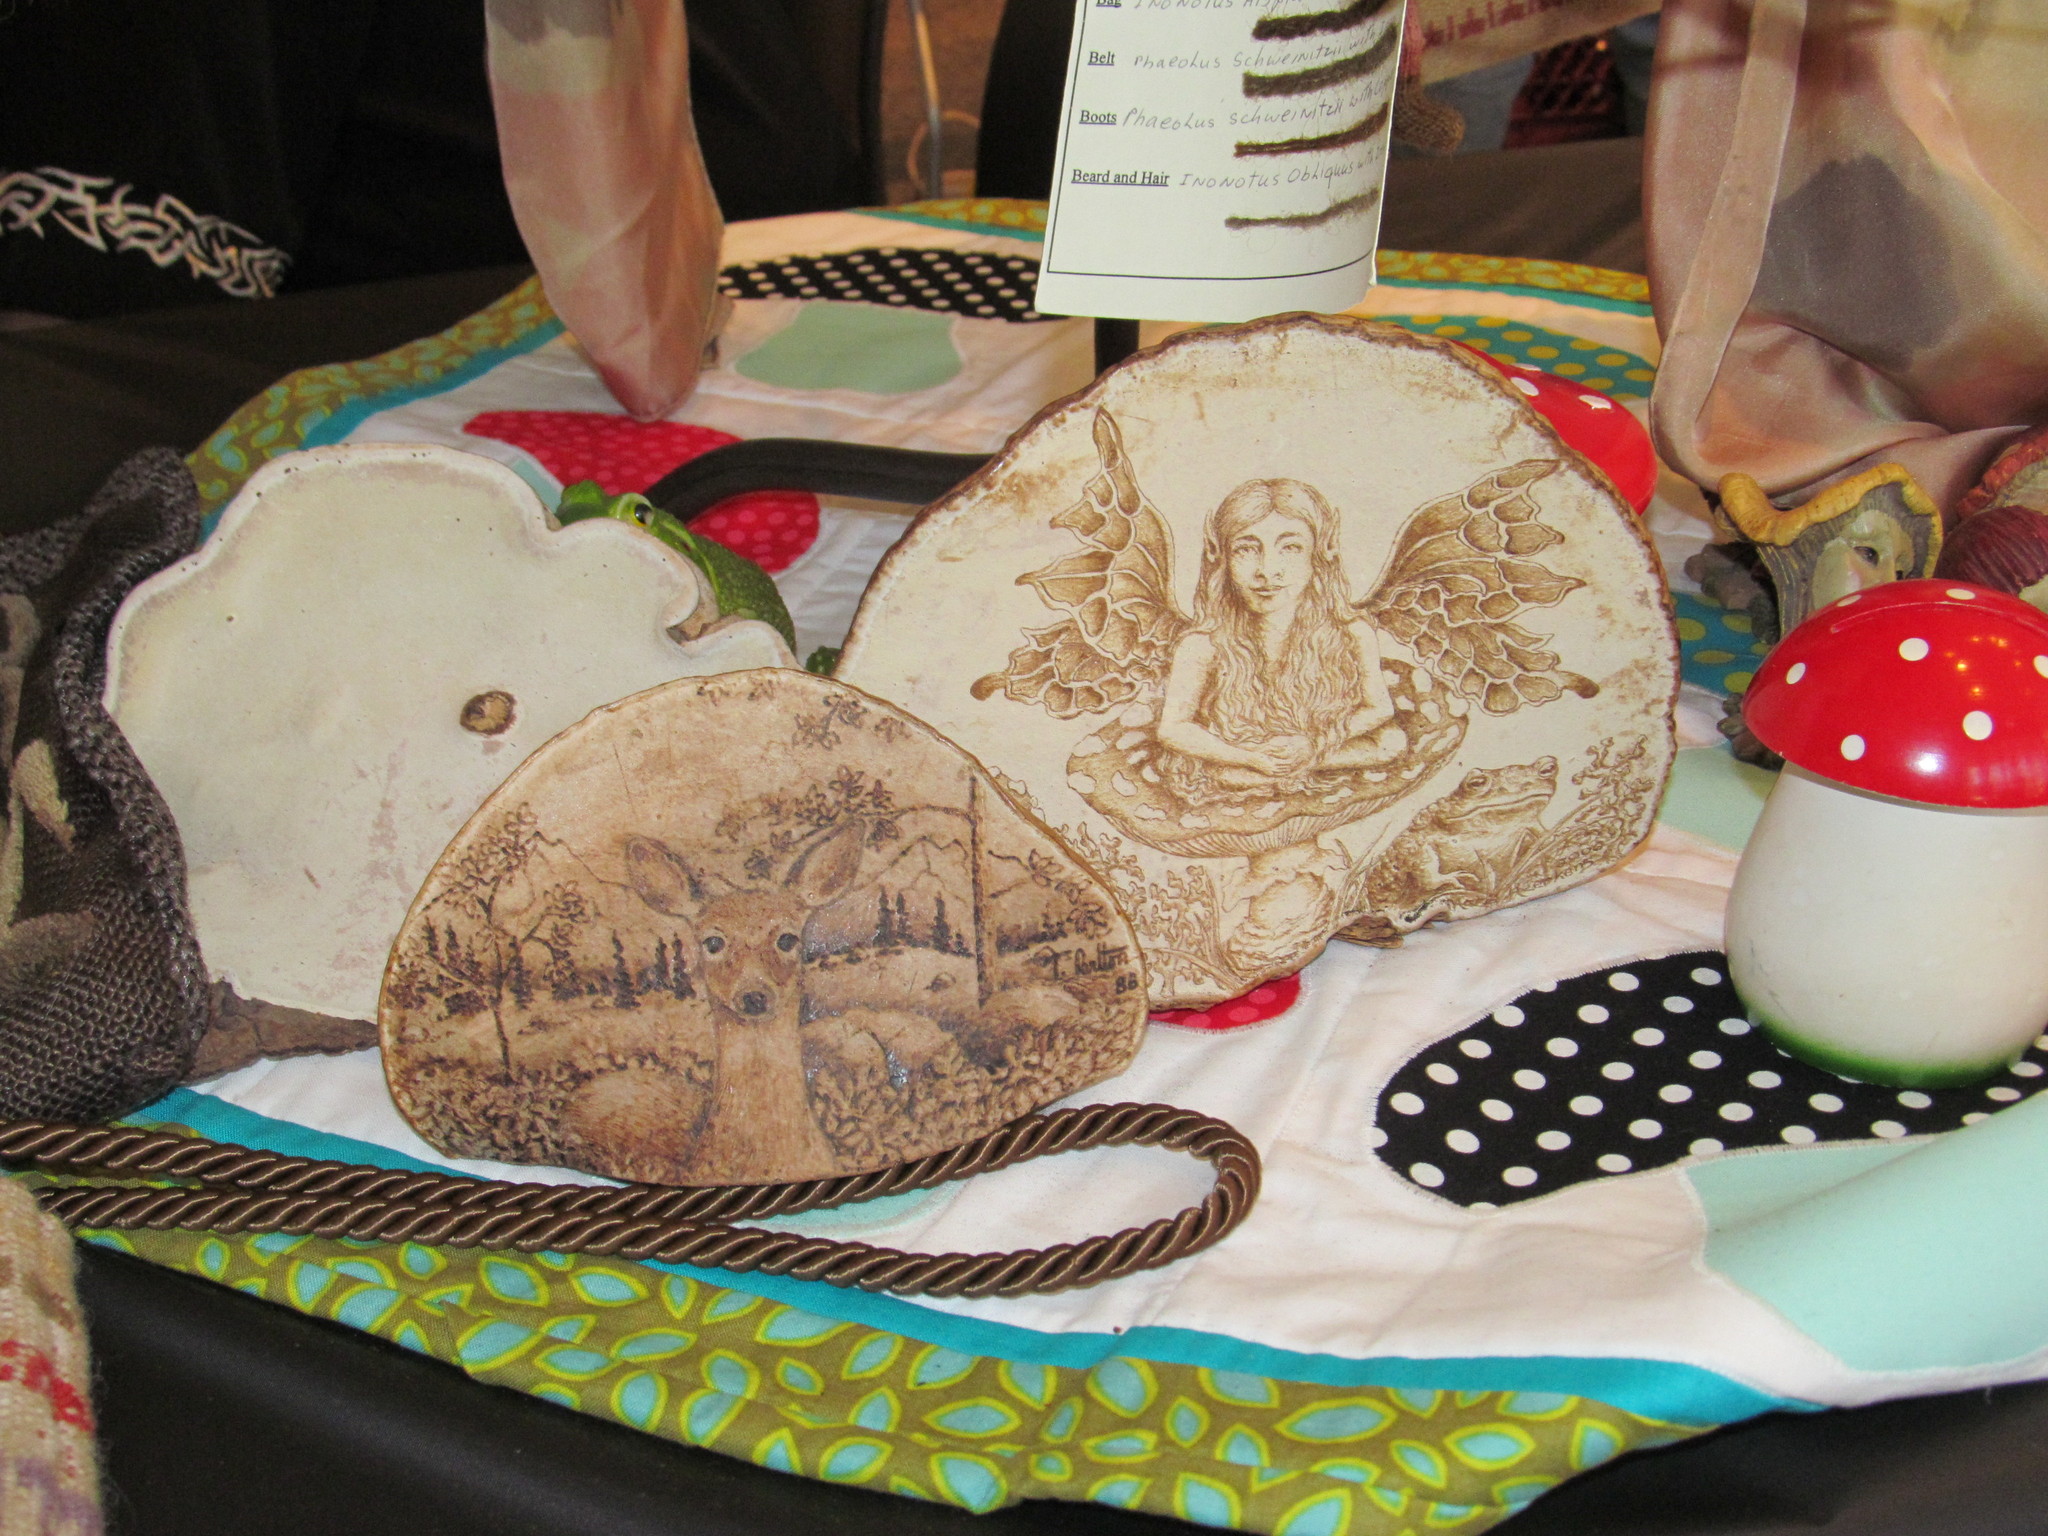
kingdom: Fungi
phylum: Basidiomycota
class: Agaricomycetes
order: Polyporales
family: Polyporaceae
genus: Ganoderma
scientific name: Ganoderma applanatum
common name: Artist's bracket
